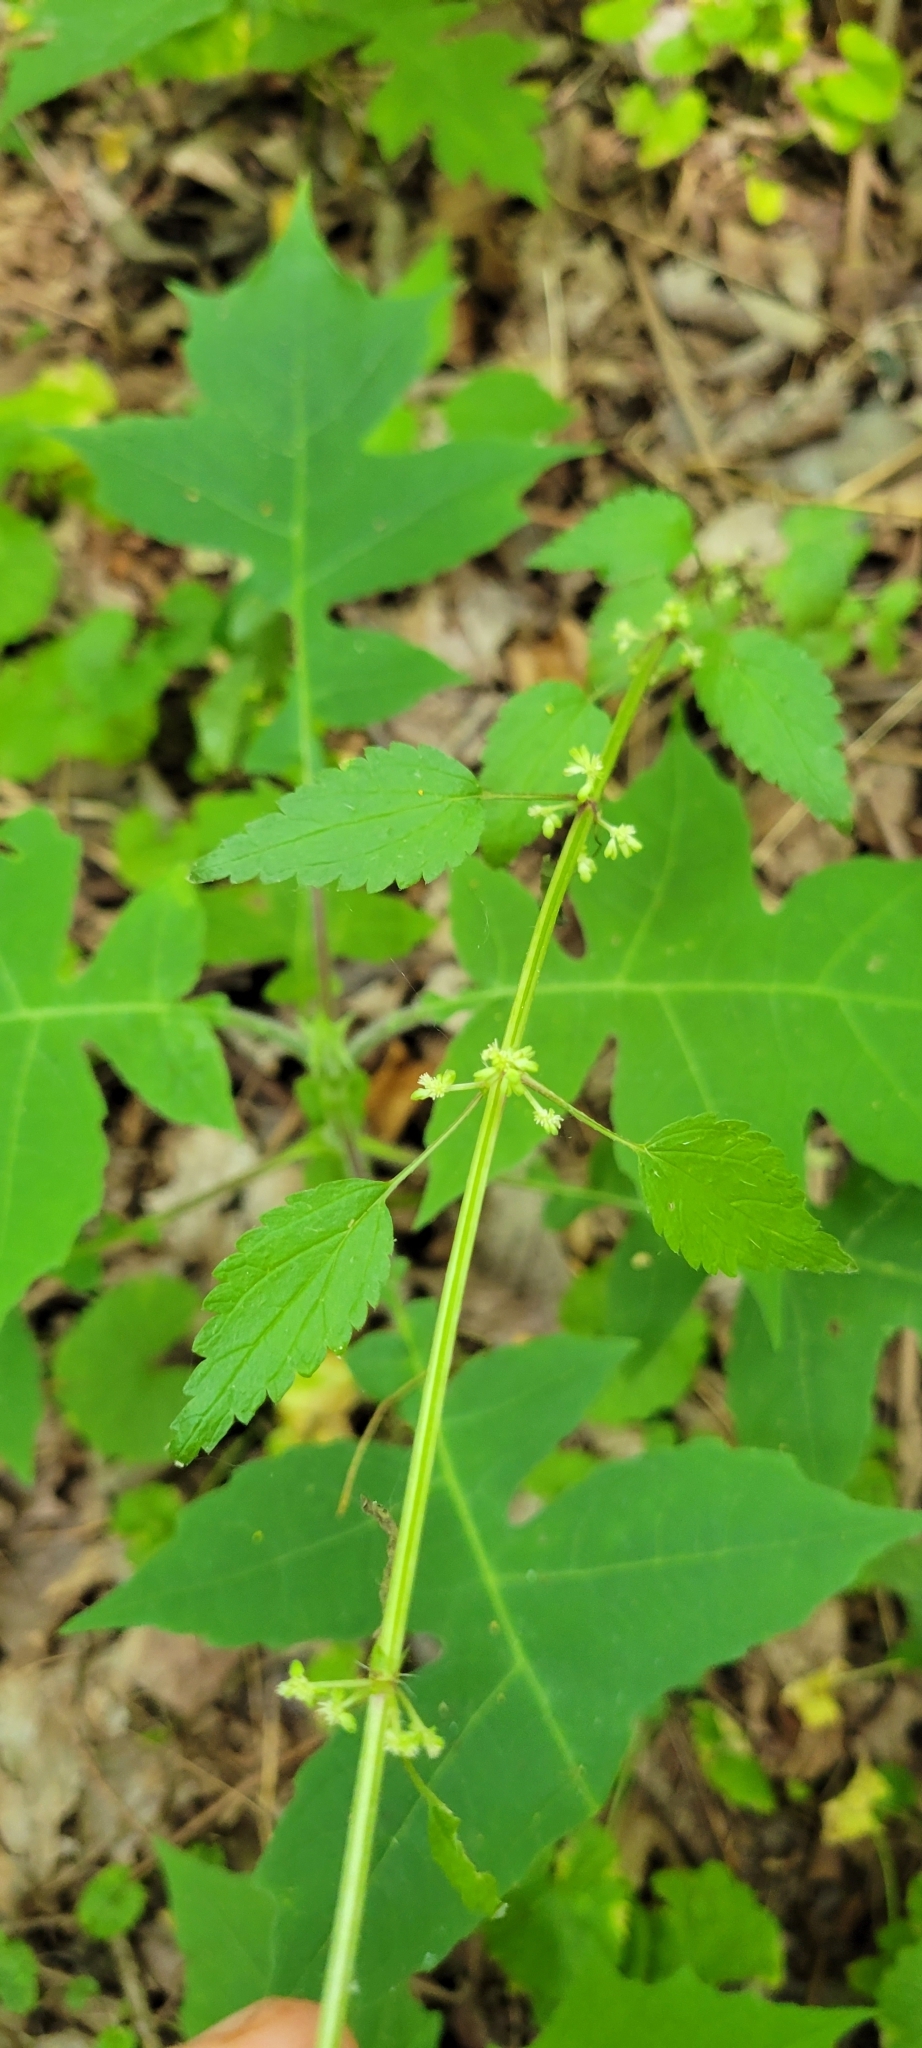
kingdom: Plantae
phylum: Tracheophyta
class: Magnoliopsida
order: Rosales
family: Urticaceae
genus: Urtica
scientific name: Urtica chamaedryoides
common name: Heart-leaf nettle
